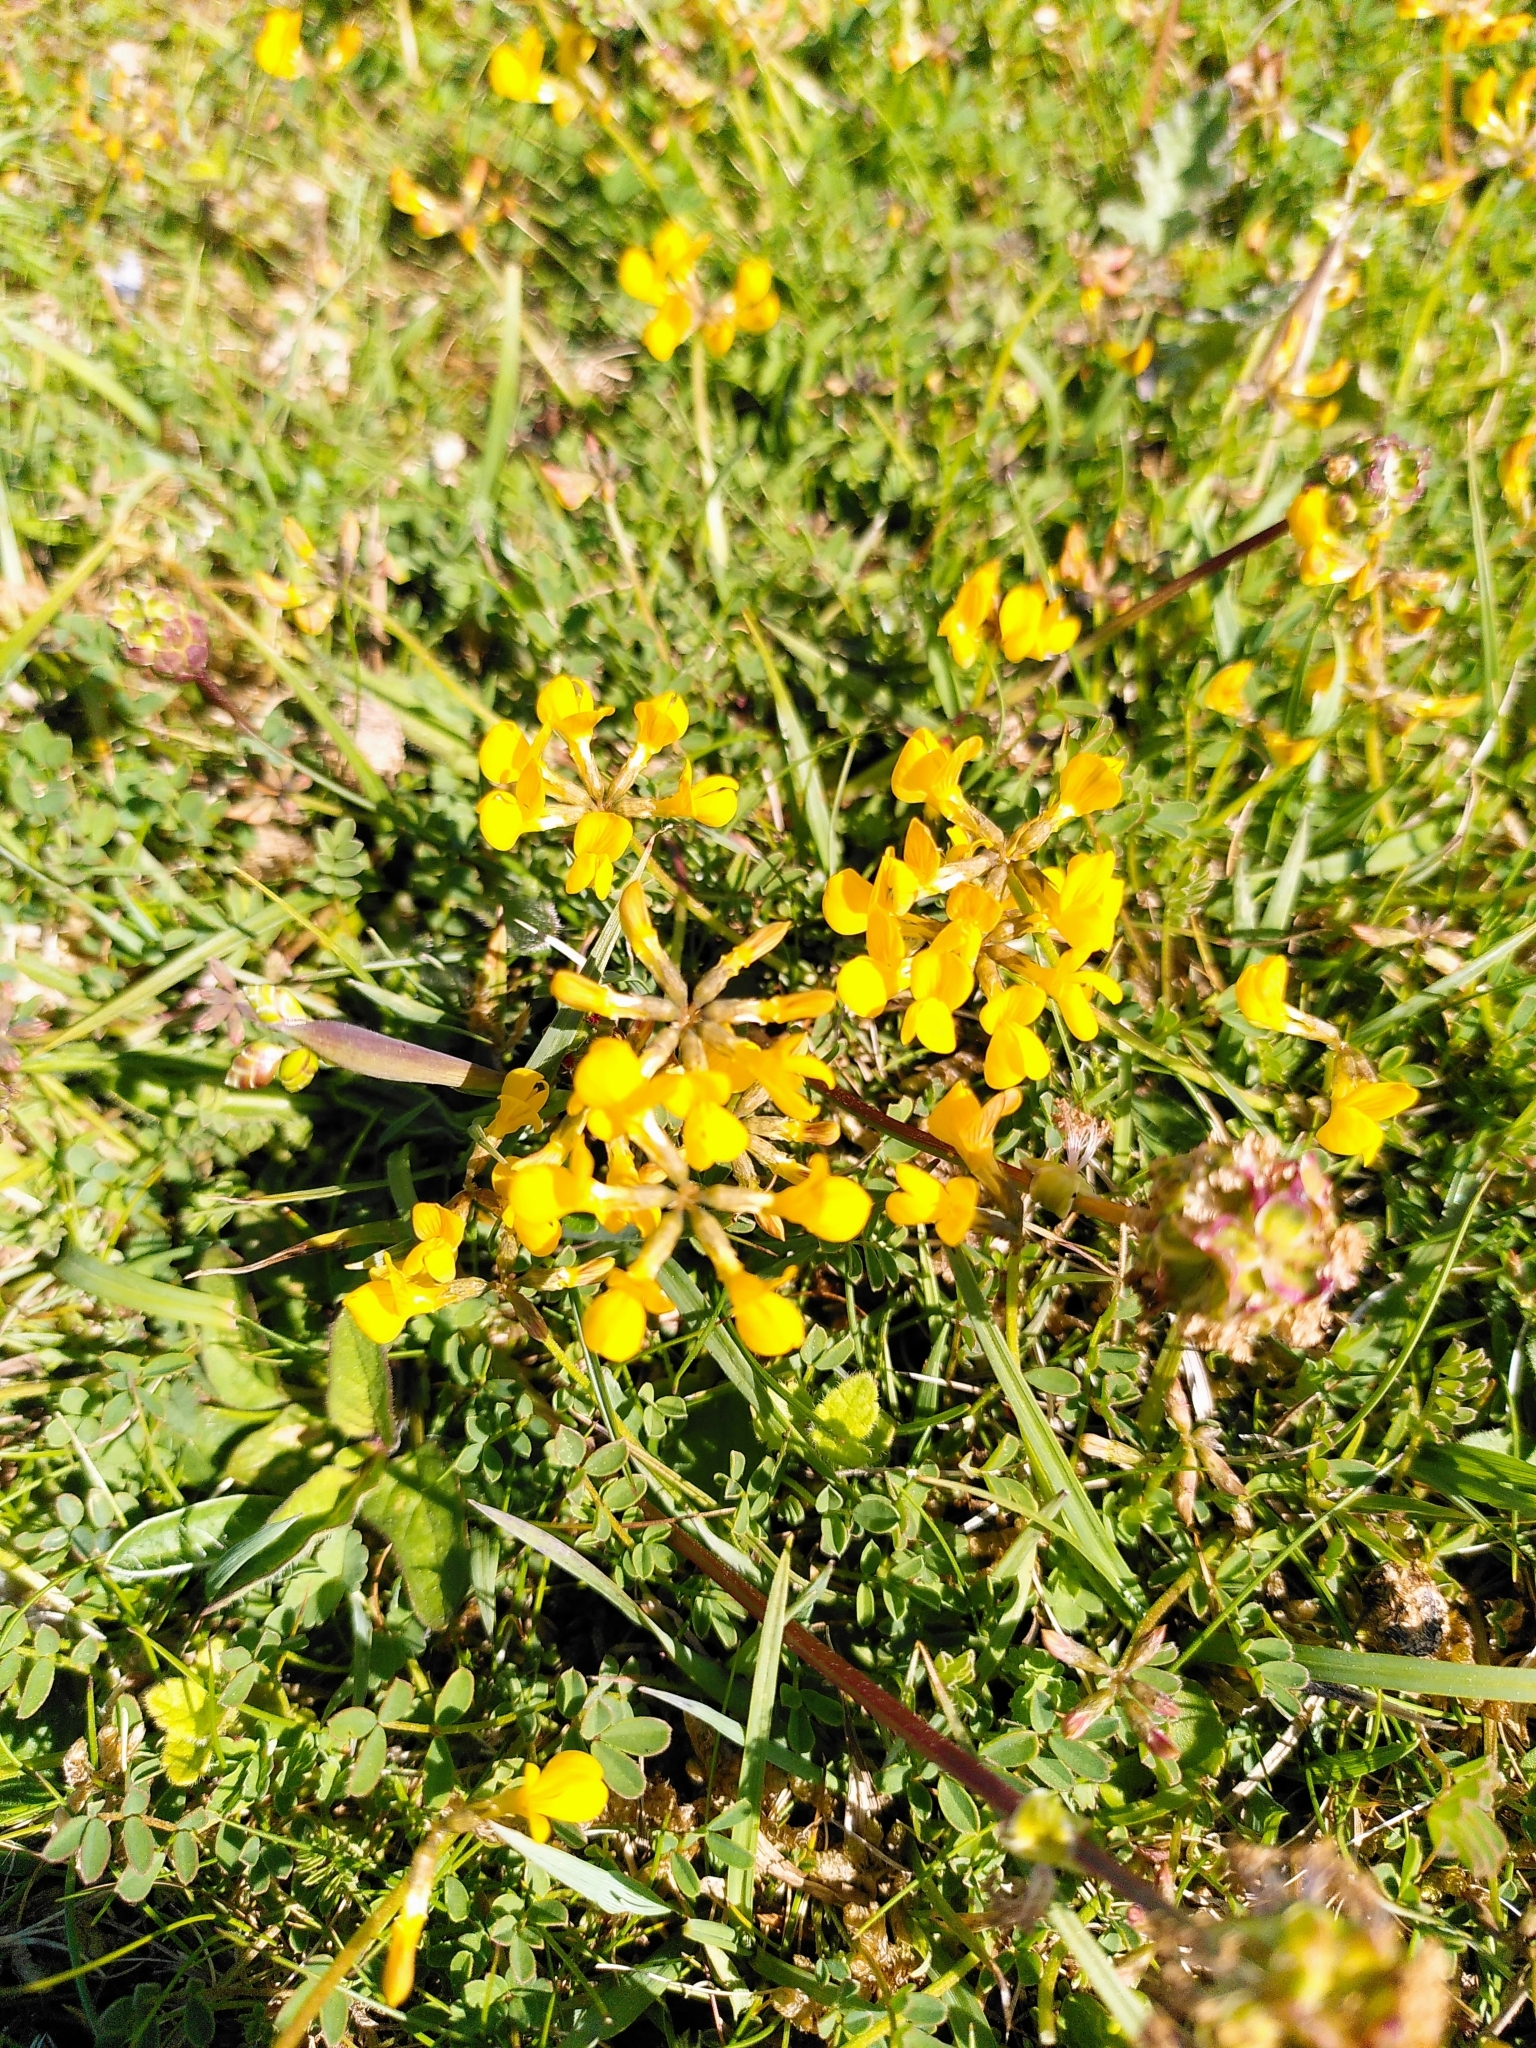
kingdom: Plantae
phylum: Tracheophyta
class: Magnoliopsida
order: Fabales
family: Fabaceae
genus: Hippocrepis
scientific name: Hippocrepis comosa
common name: Horseshoe vetch
